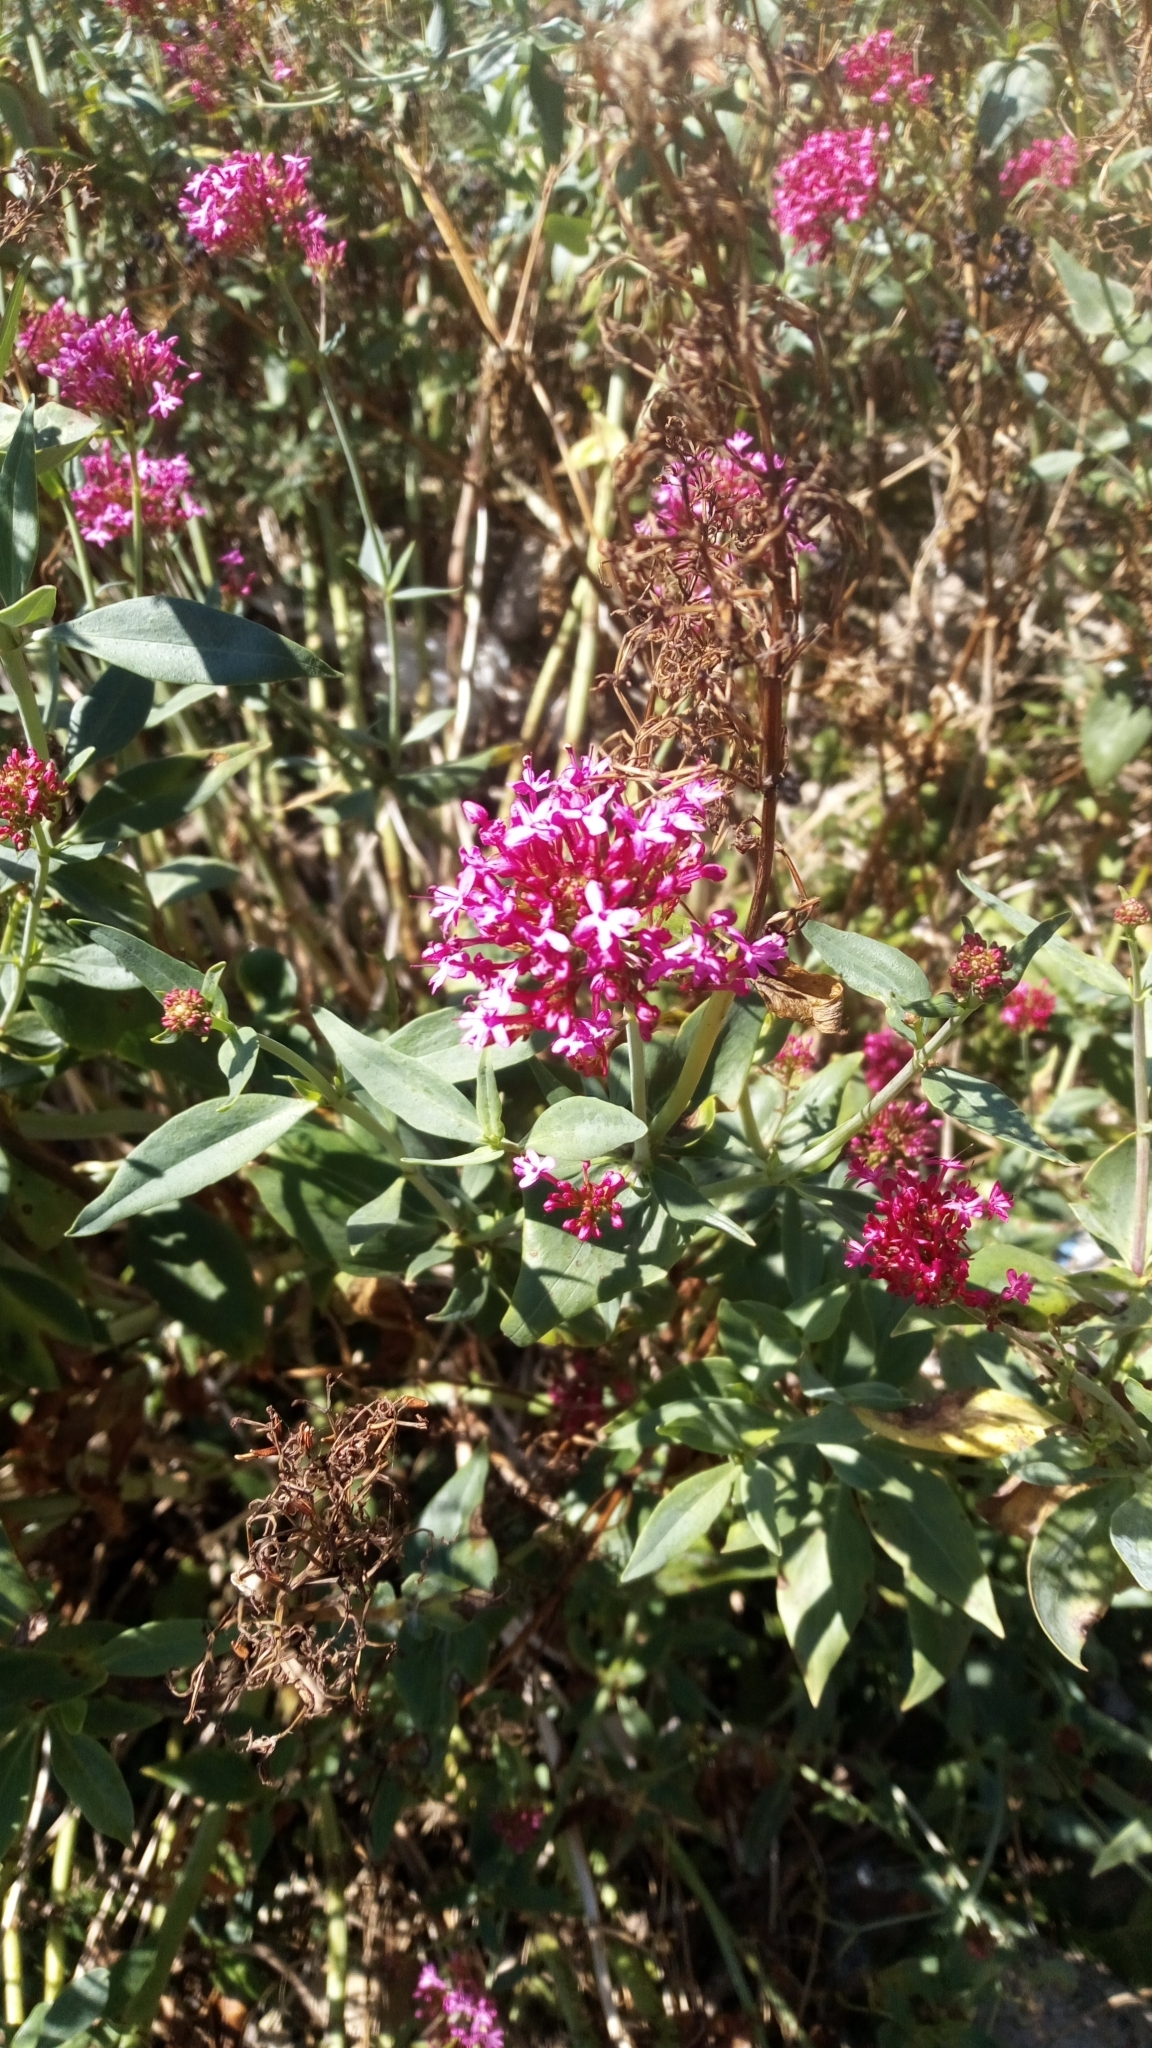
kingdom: Plantae
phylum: Tracheophyta
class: Magnoliopsida
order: Dipsacales
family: Caprifoliaceae
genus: Centranthus
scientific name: Centranthus ruber
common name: Red valerian
